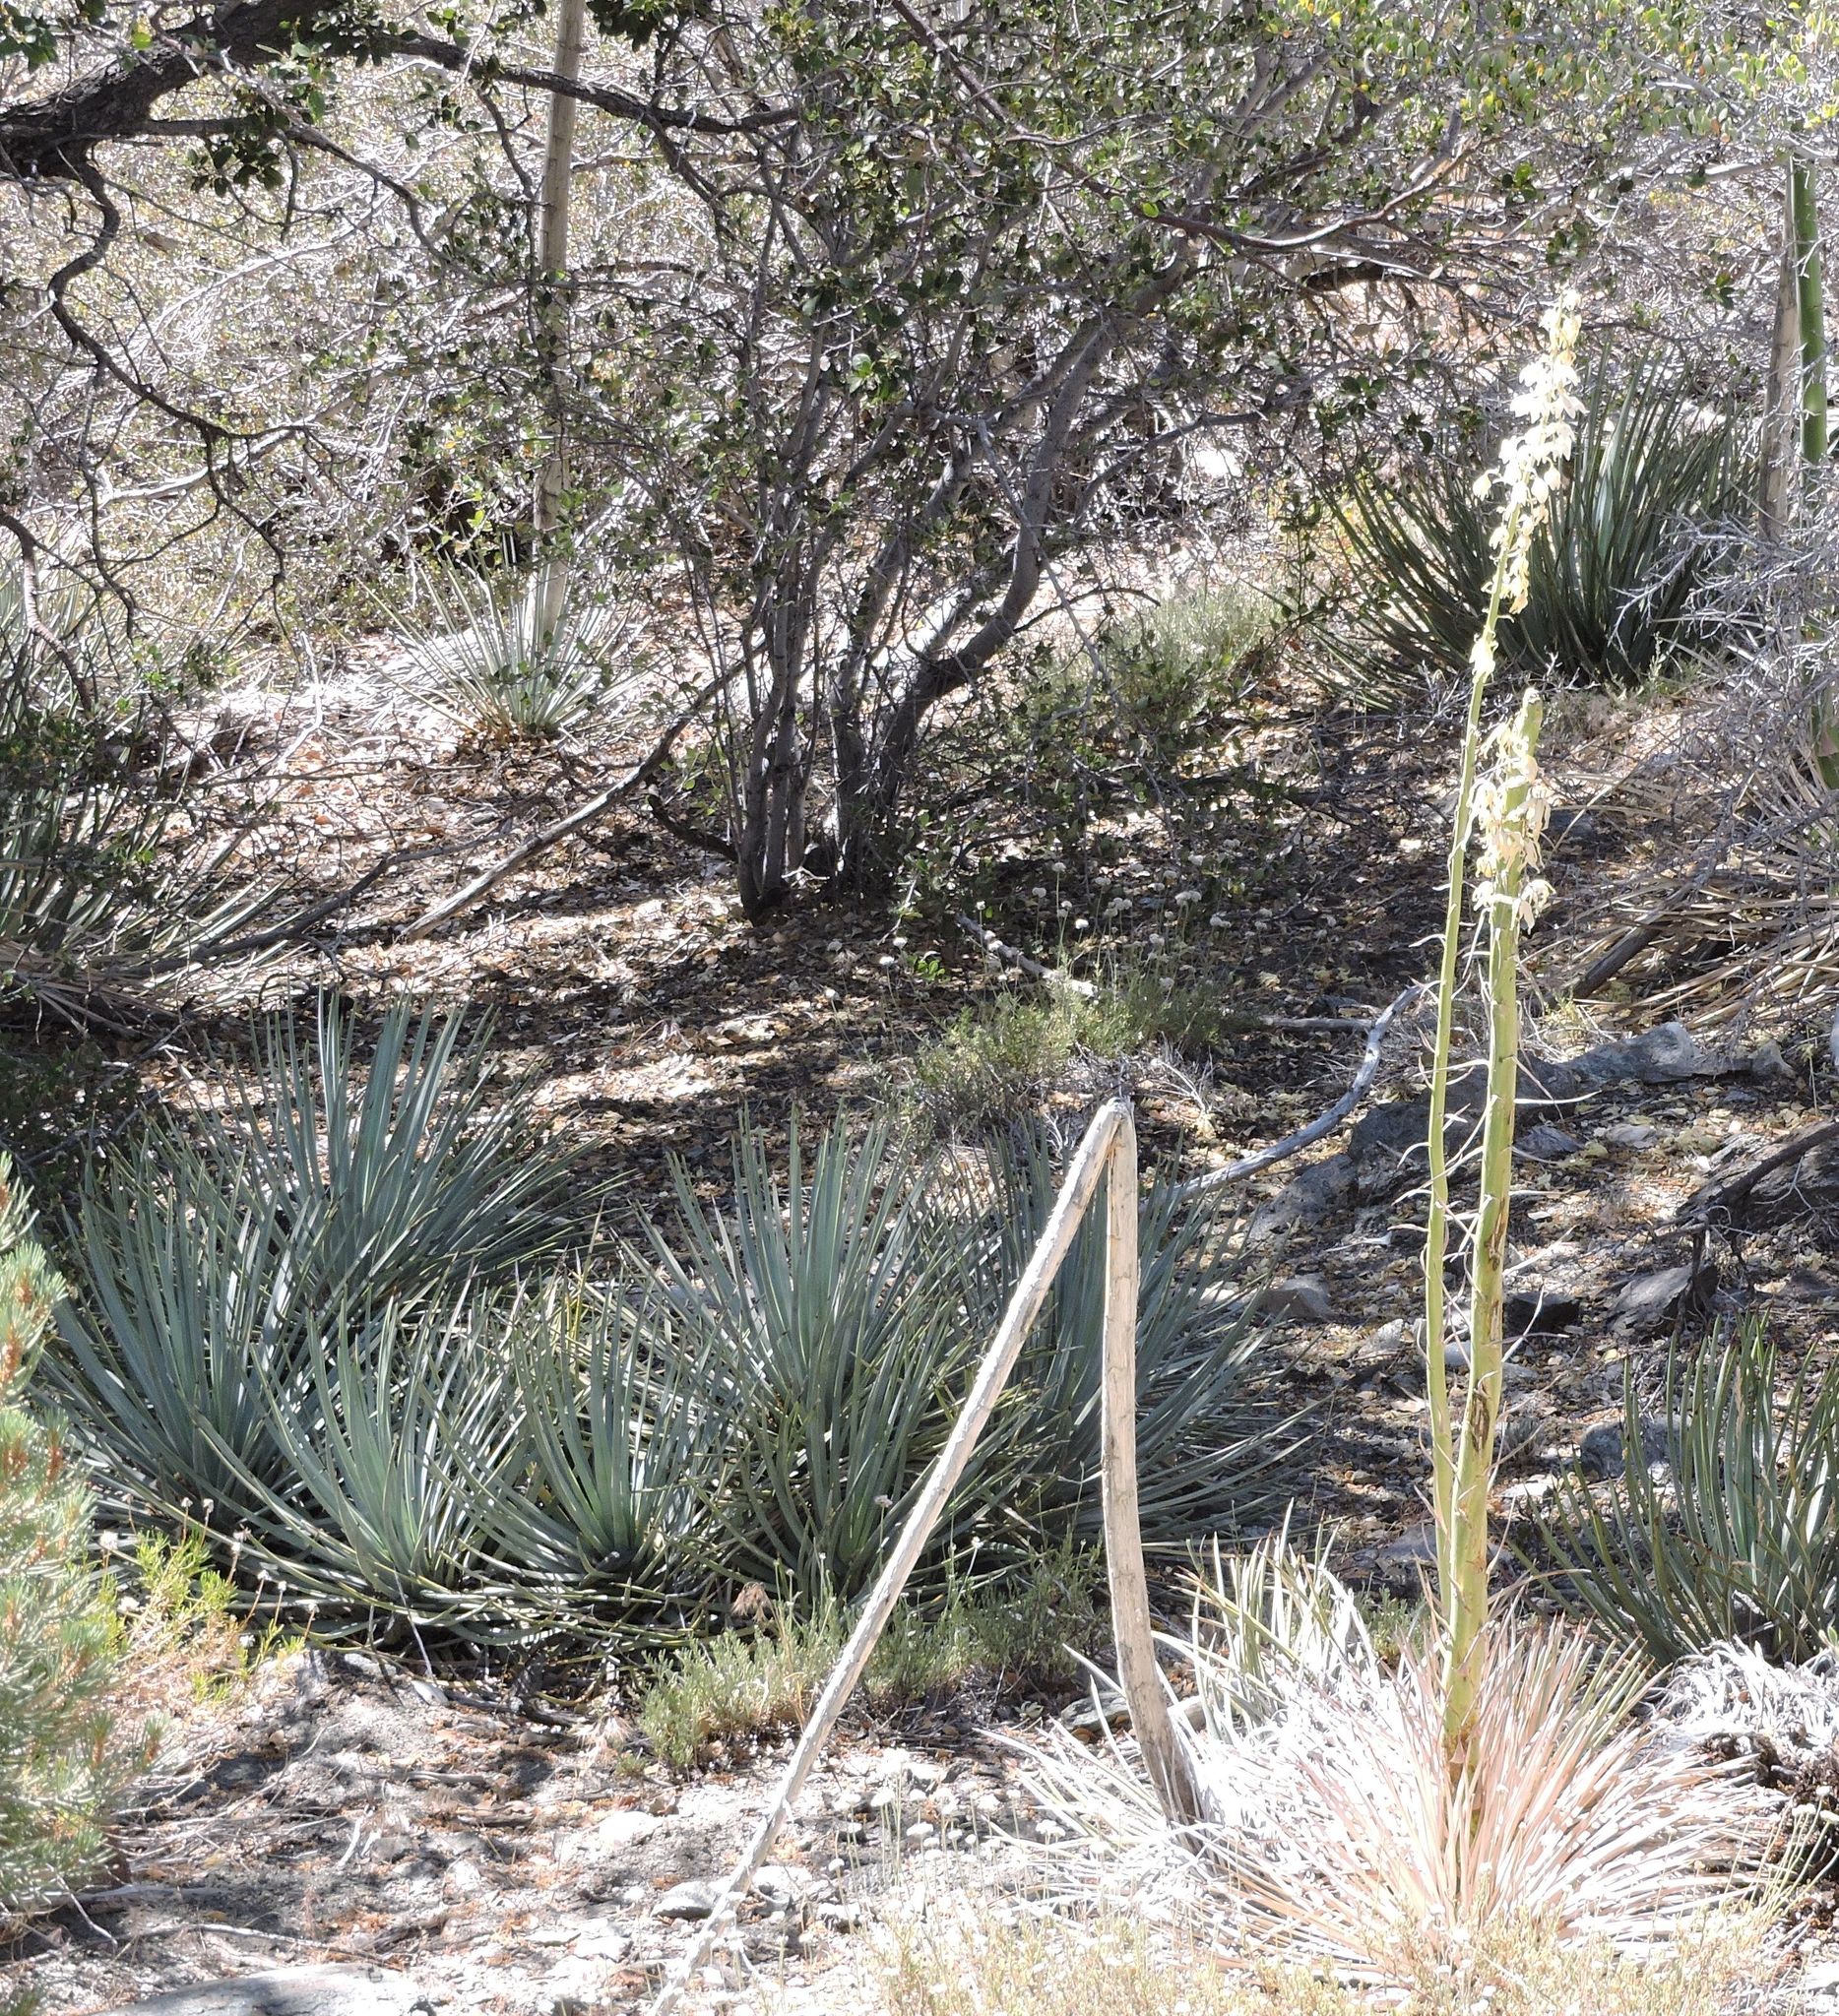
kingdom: Plantae
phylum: Tracheophyta
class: Liliopsida
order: Asparagales
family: Asparagaceae
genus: Hesperoyucca
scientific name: Hesperoyucca whipplei
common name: Our lord's-candle
